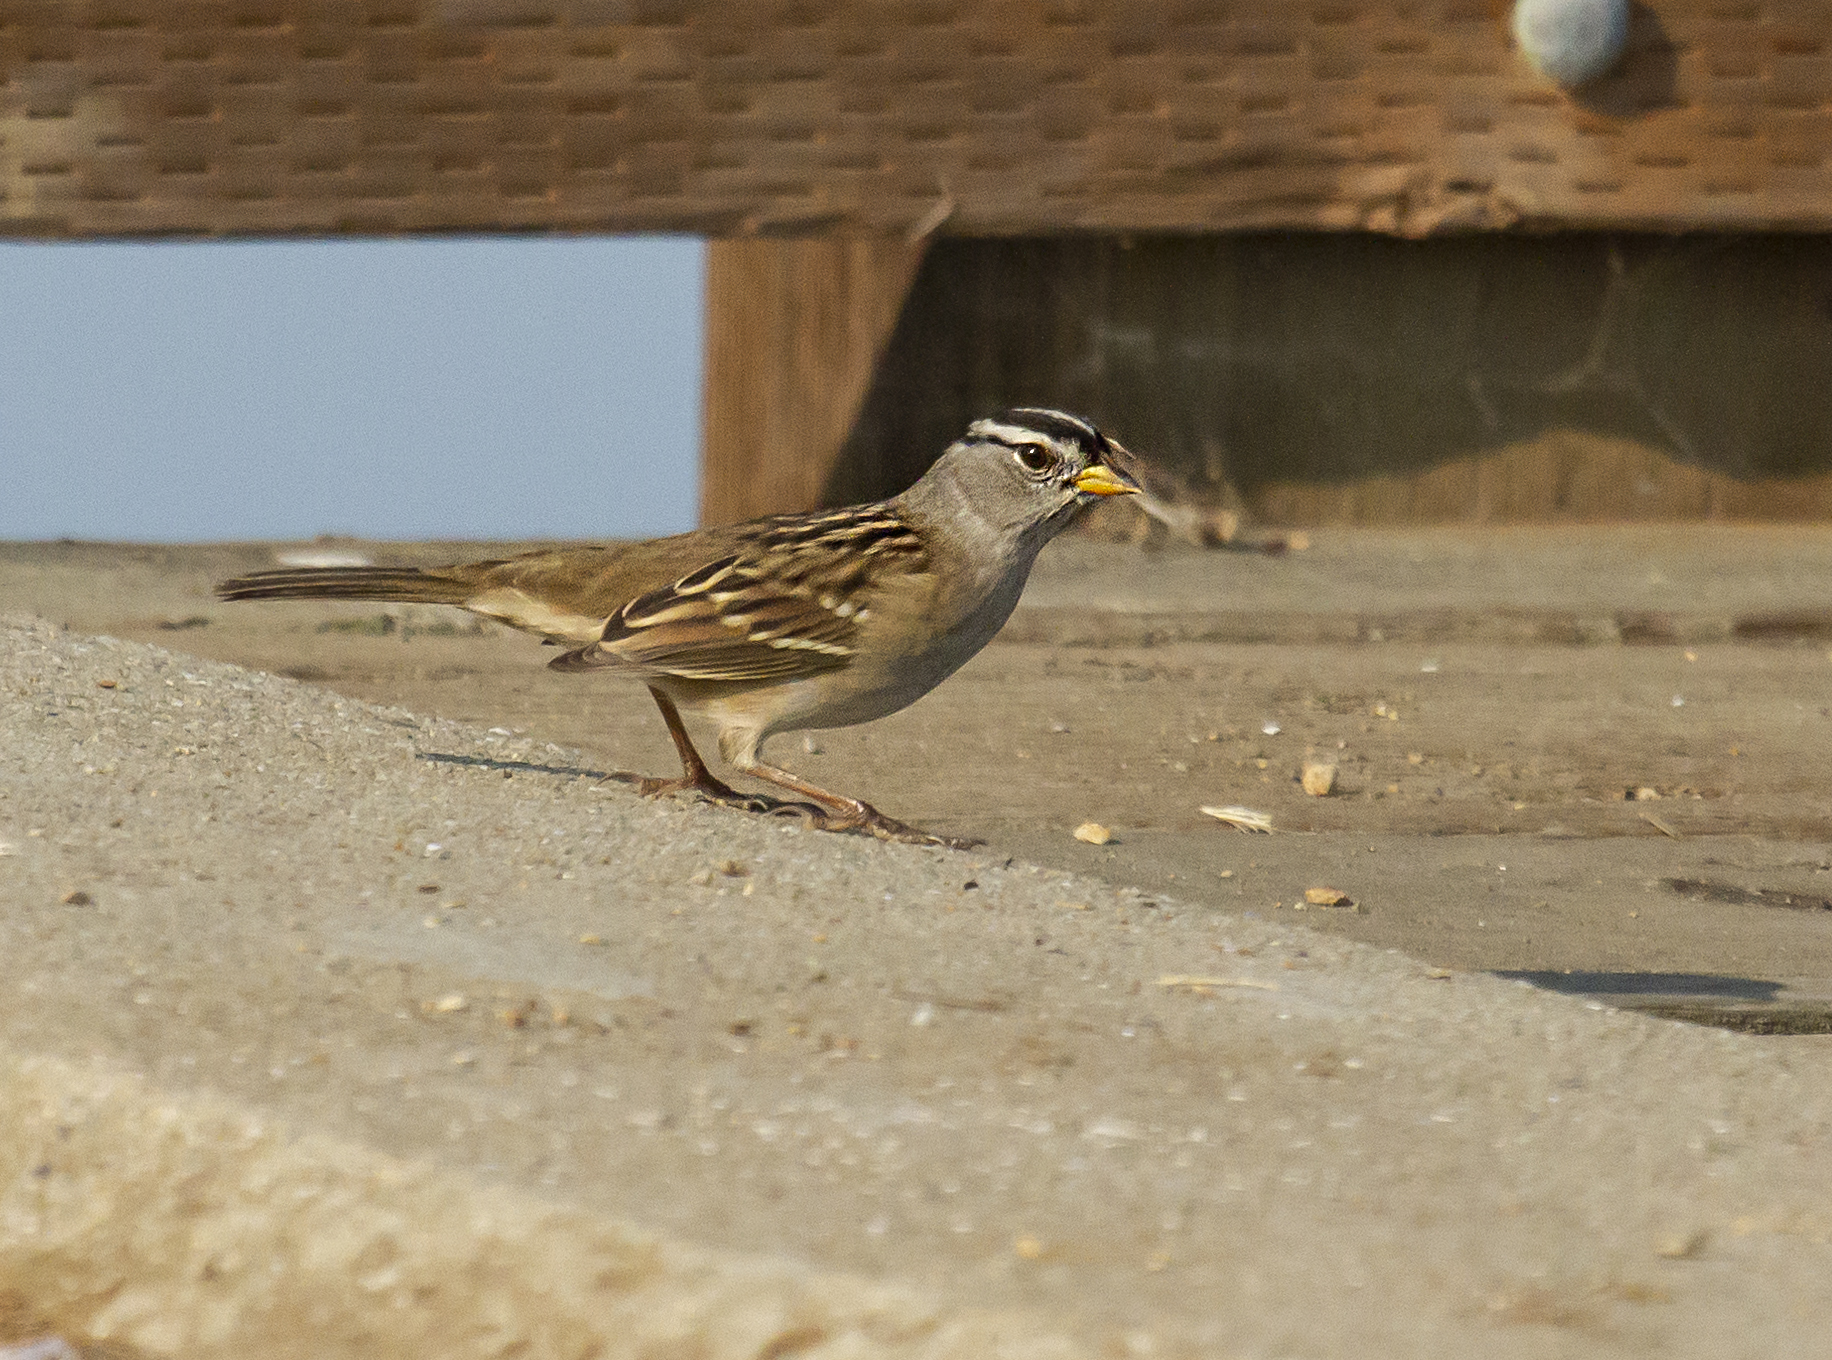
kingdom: Animalia
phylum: Chordata
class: Aves
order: Passeriformes
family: Passerellidae
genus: Zonotrichia
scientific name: Zonotrichia leucophrys
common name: White-crowned sparrow
